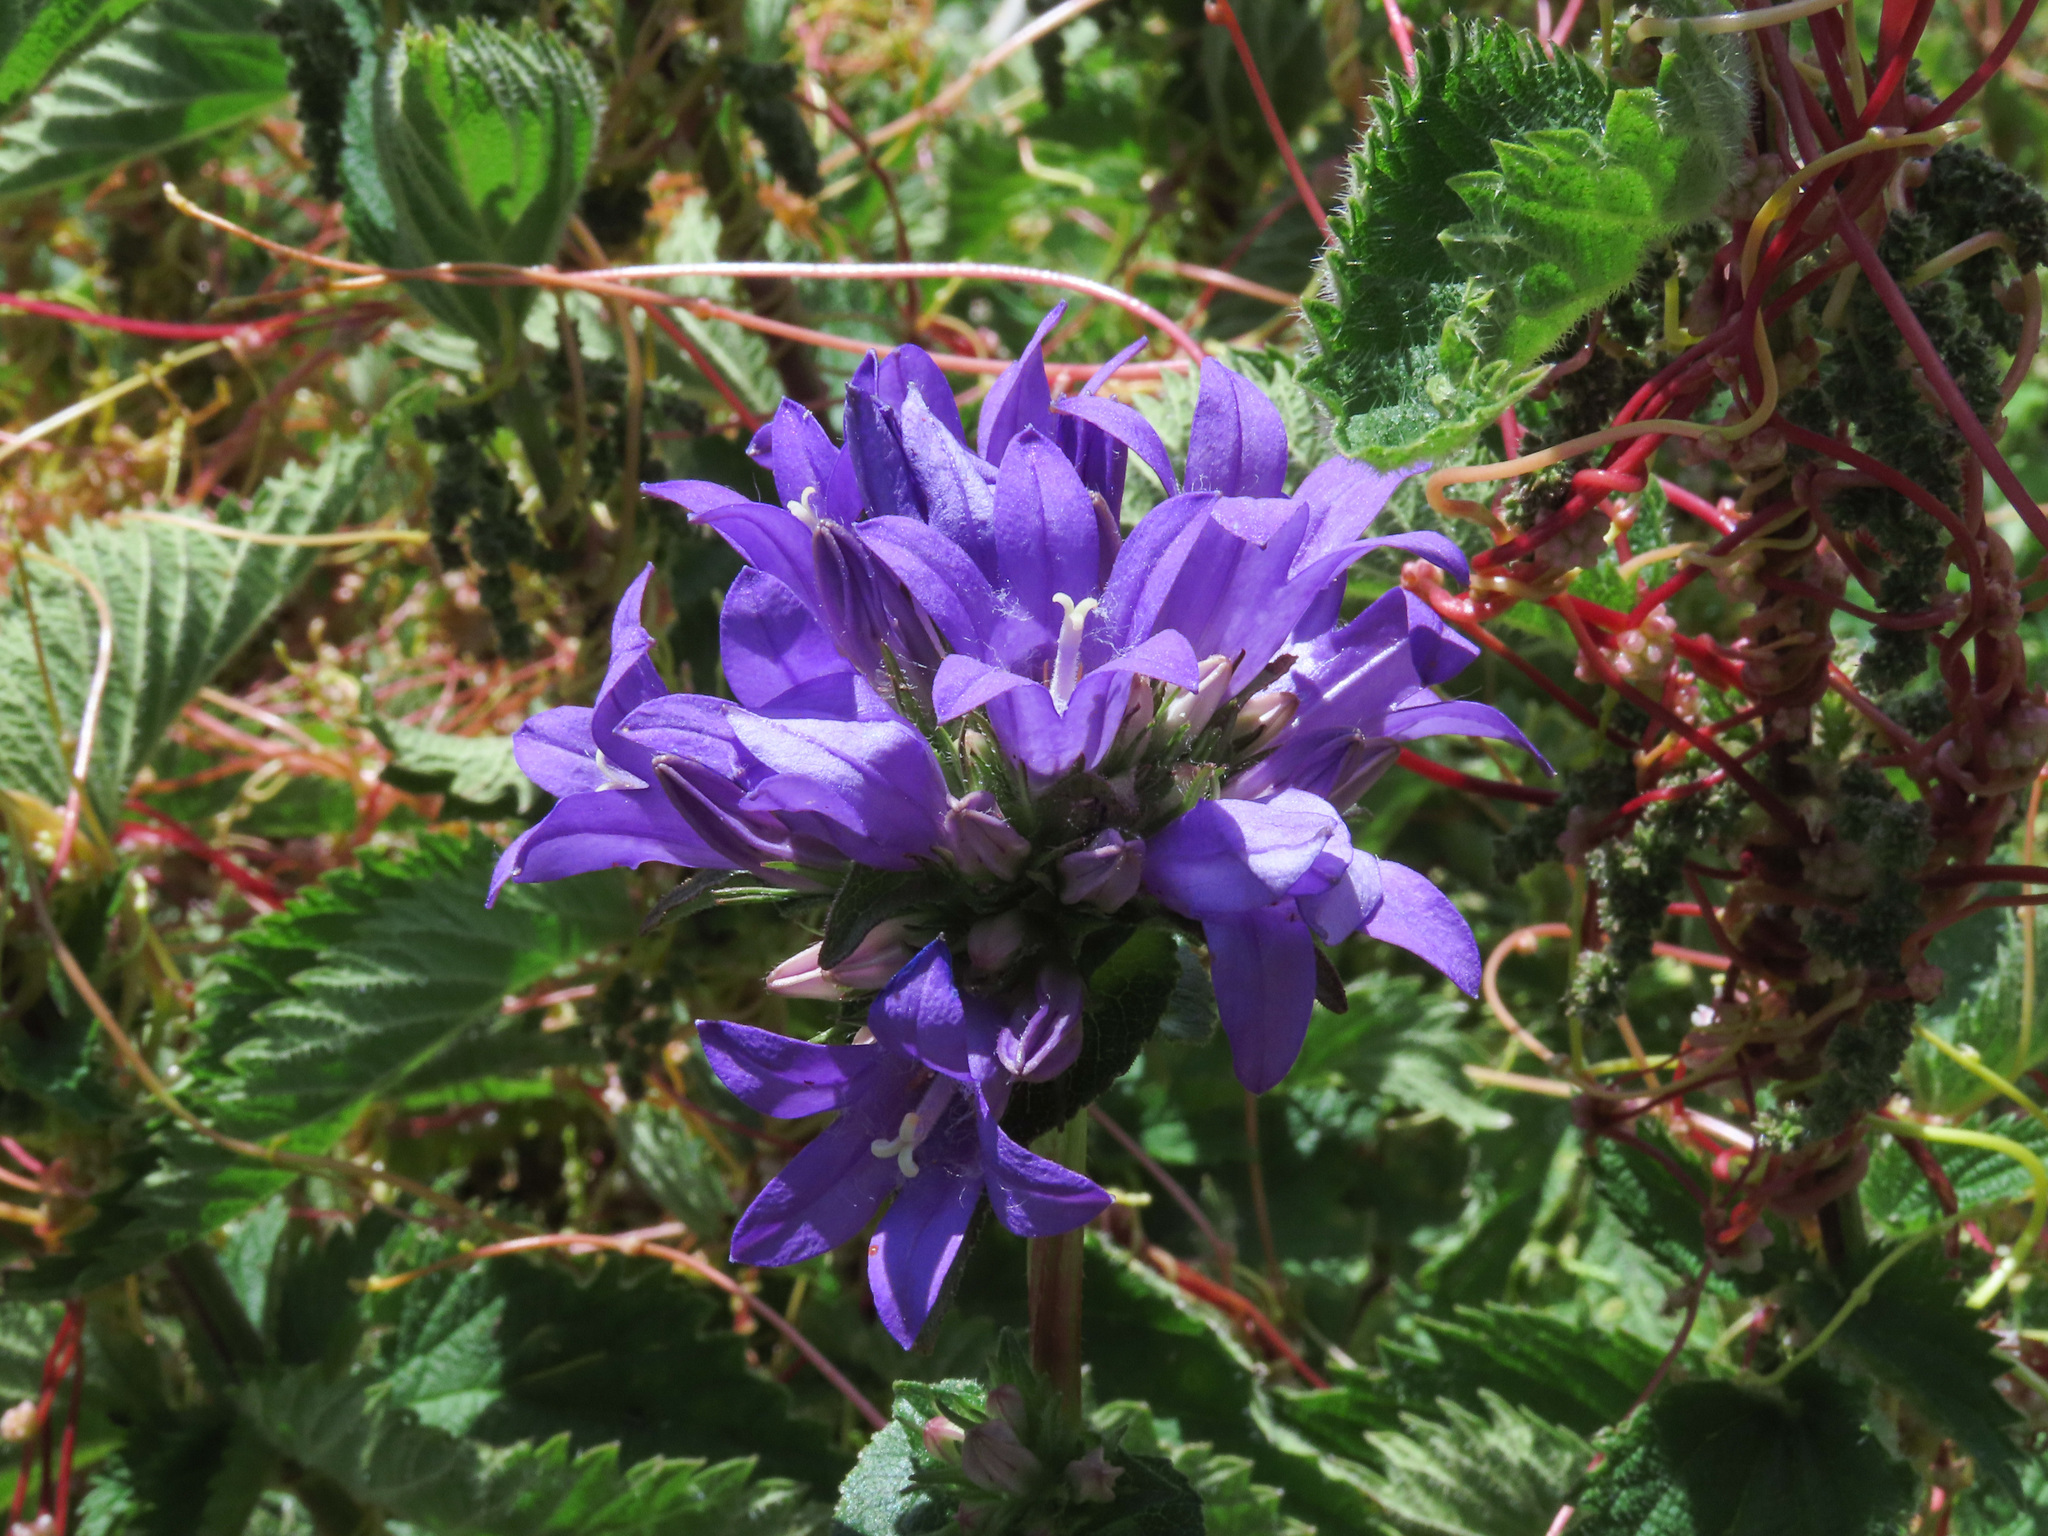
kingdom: Plantae
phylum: Tracheophyta
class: Magnoliopsida
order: Asterales
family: Campanulaceae
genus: Campanula
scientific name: Campanula glomerata
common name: Clustered bellflower
